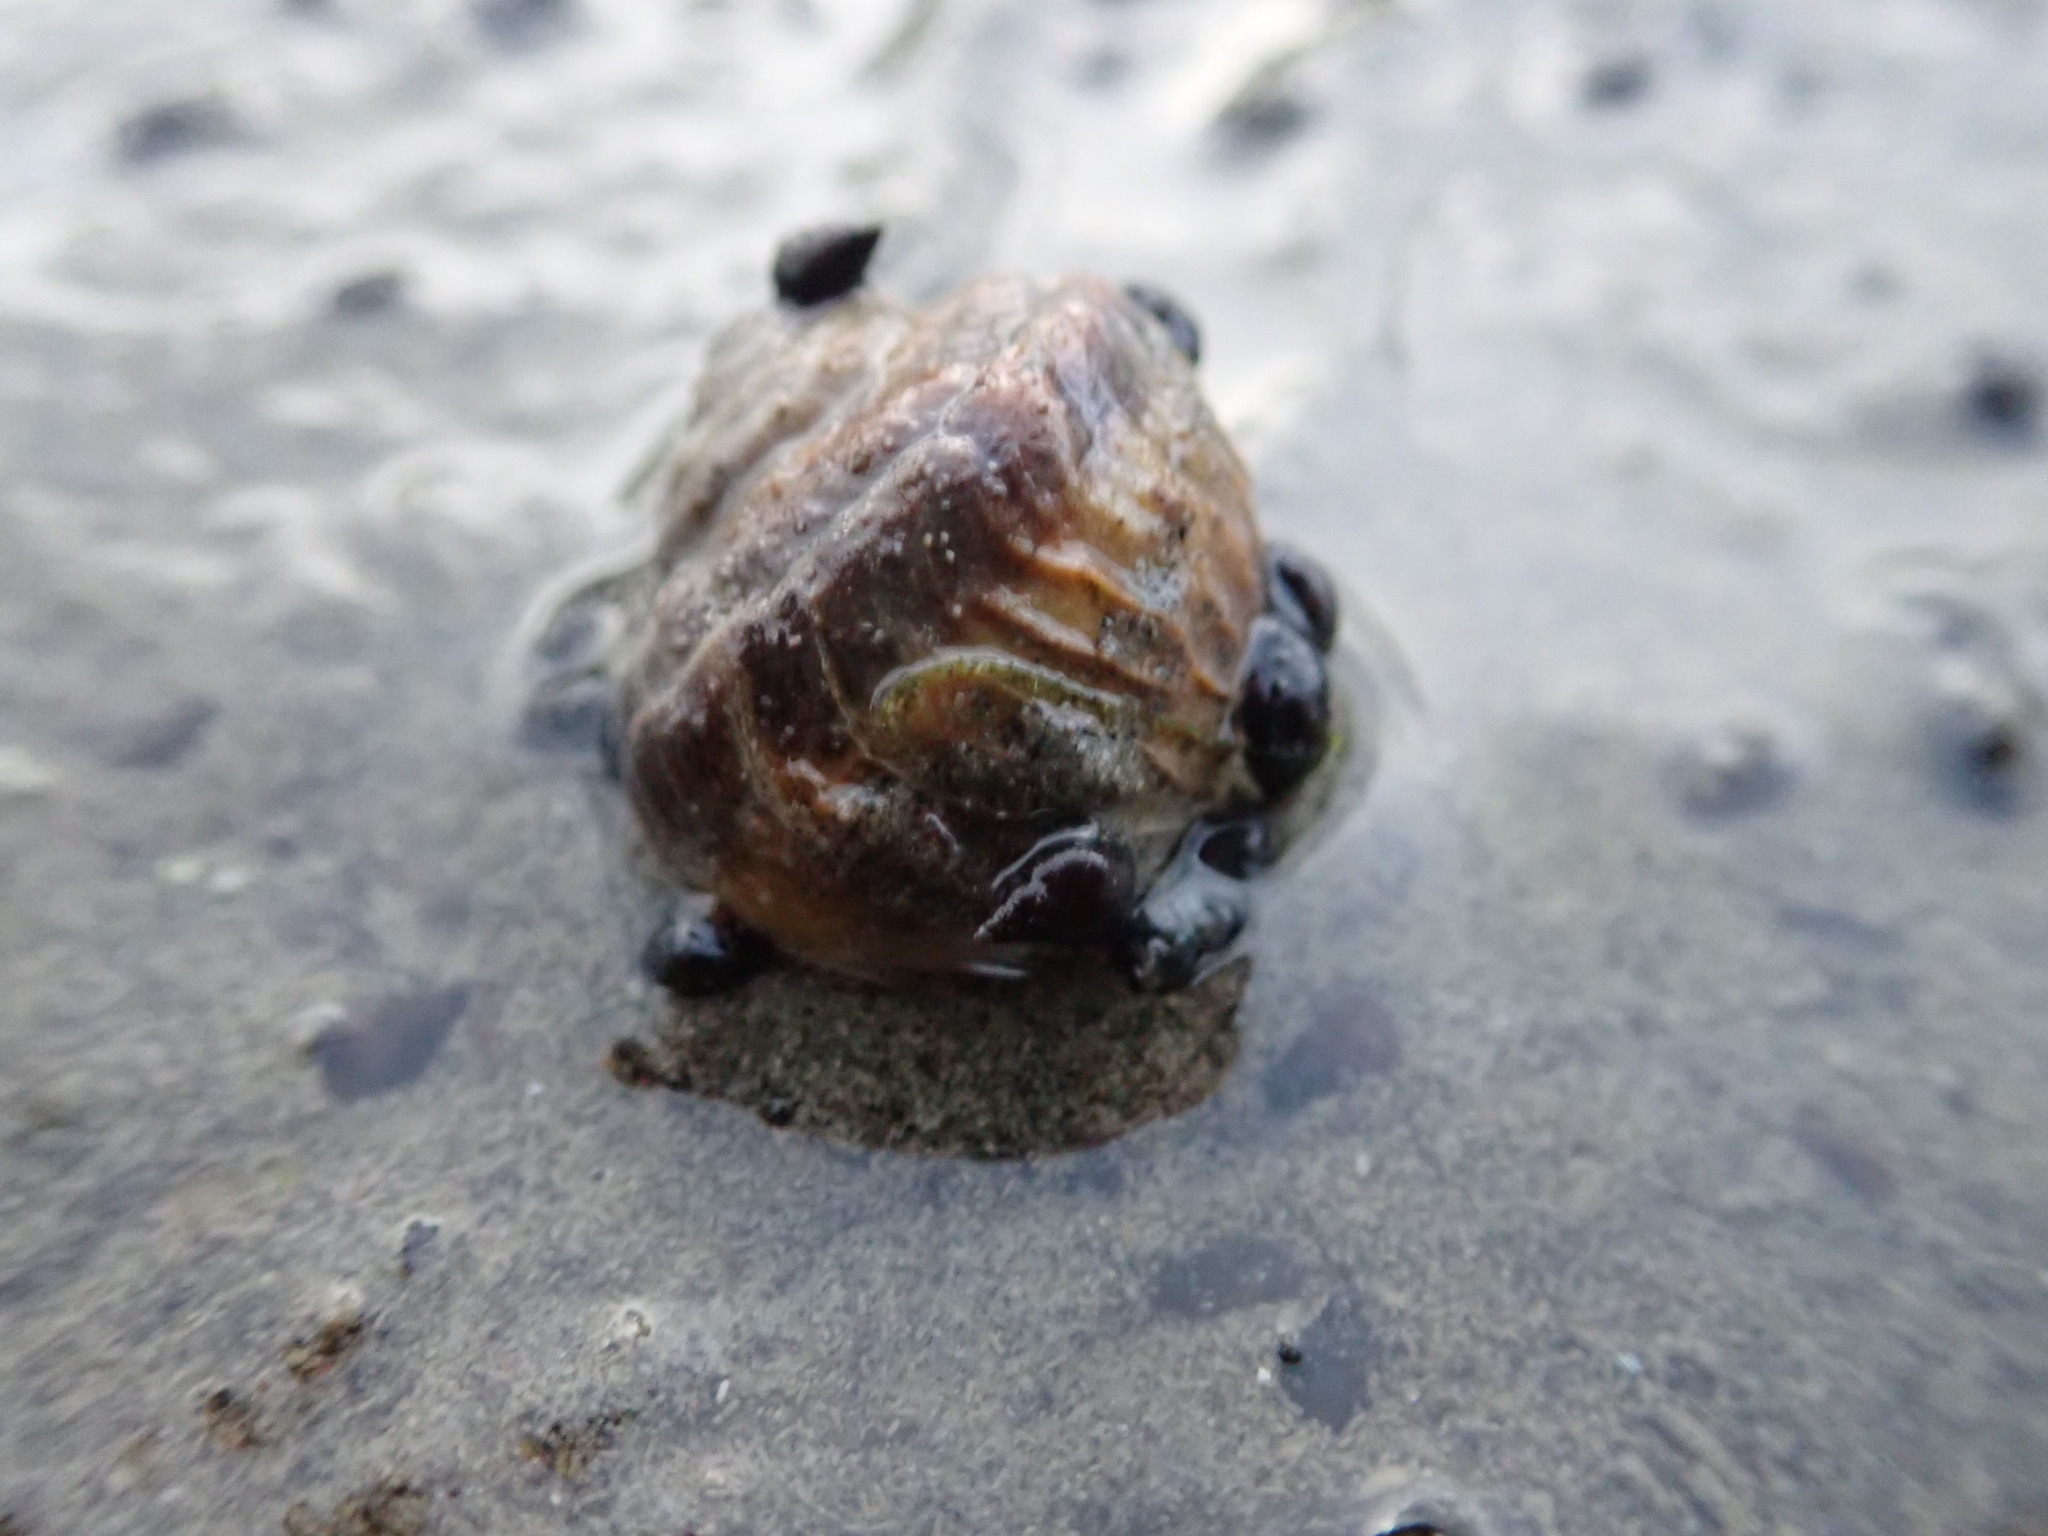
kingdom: Animalia
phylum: Mollusca
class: Gastropoda
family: Amphibolidae
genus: Amphibola
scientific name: Amphibola crenata
